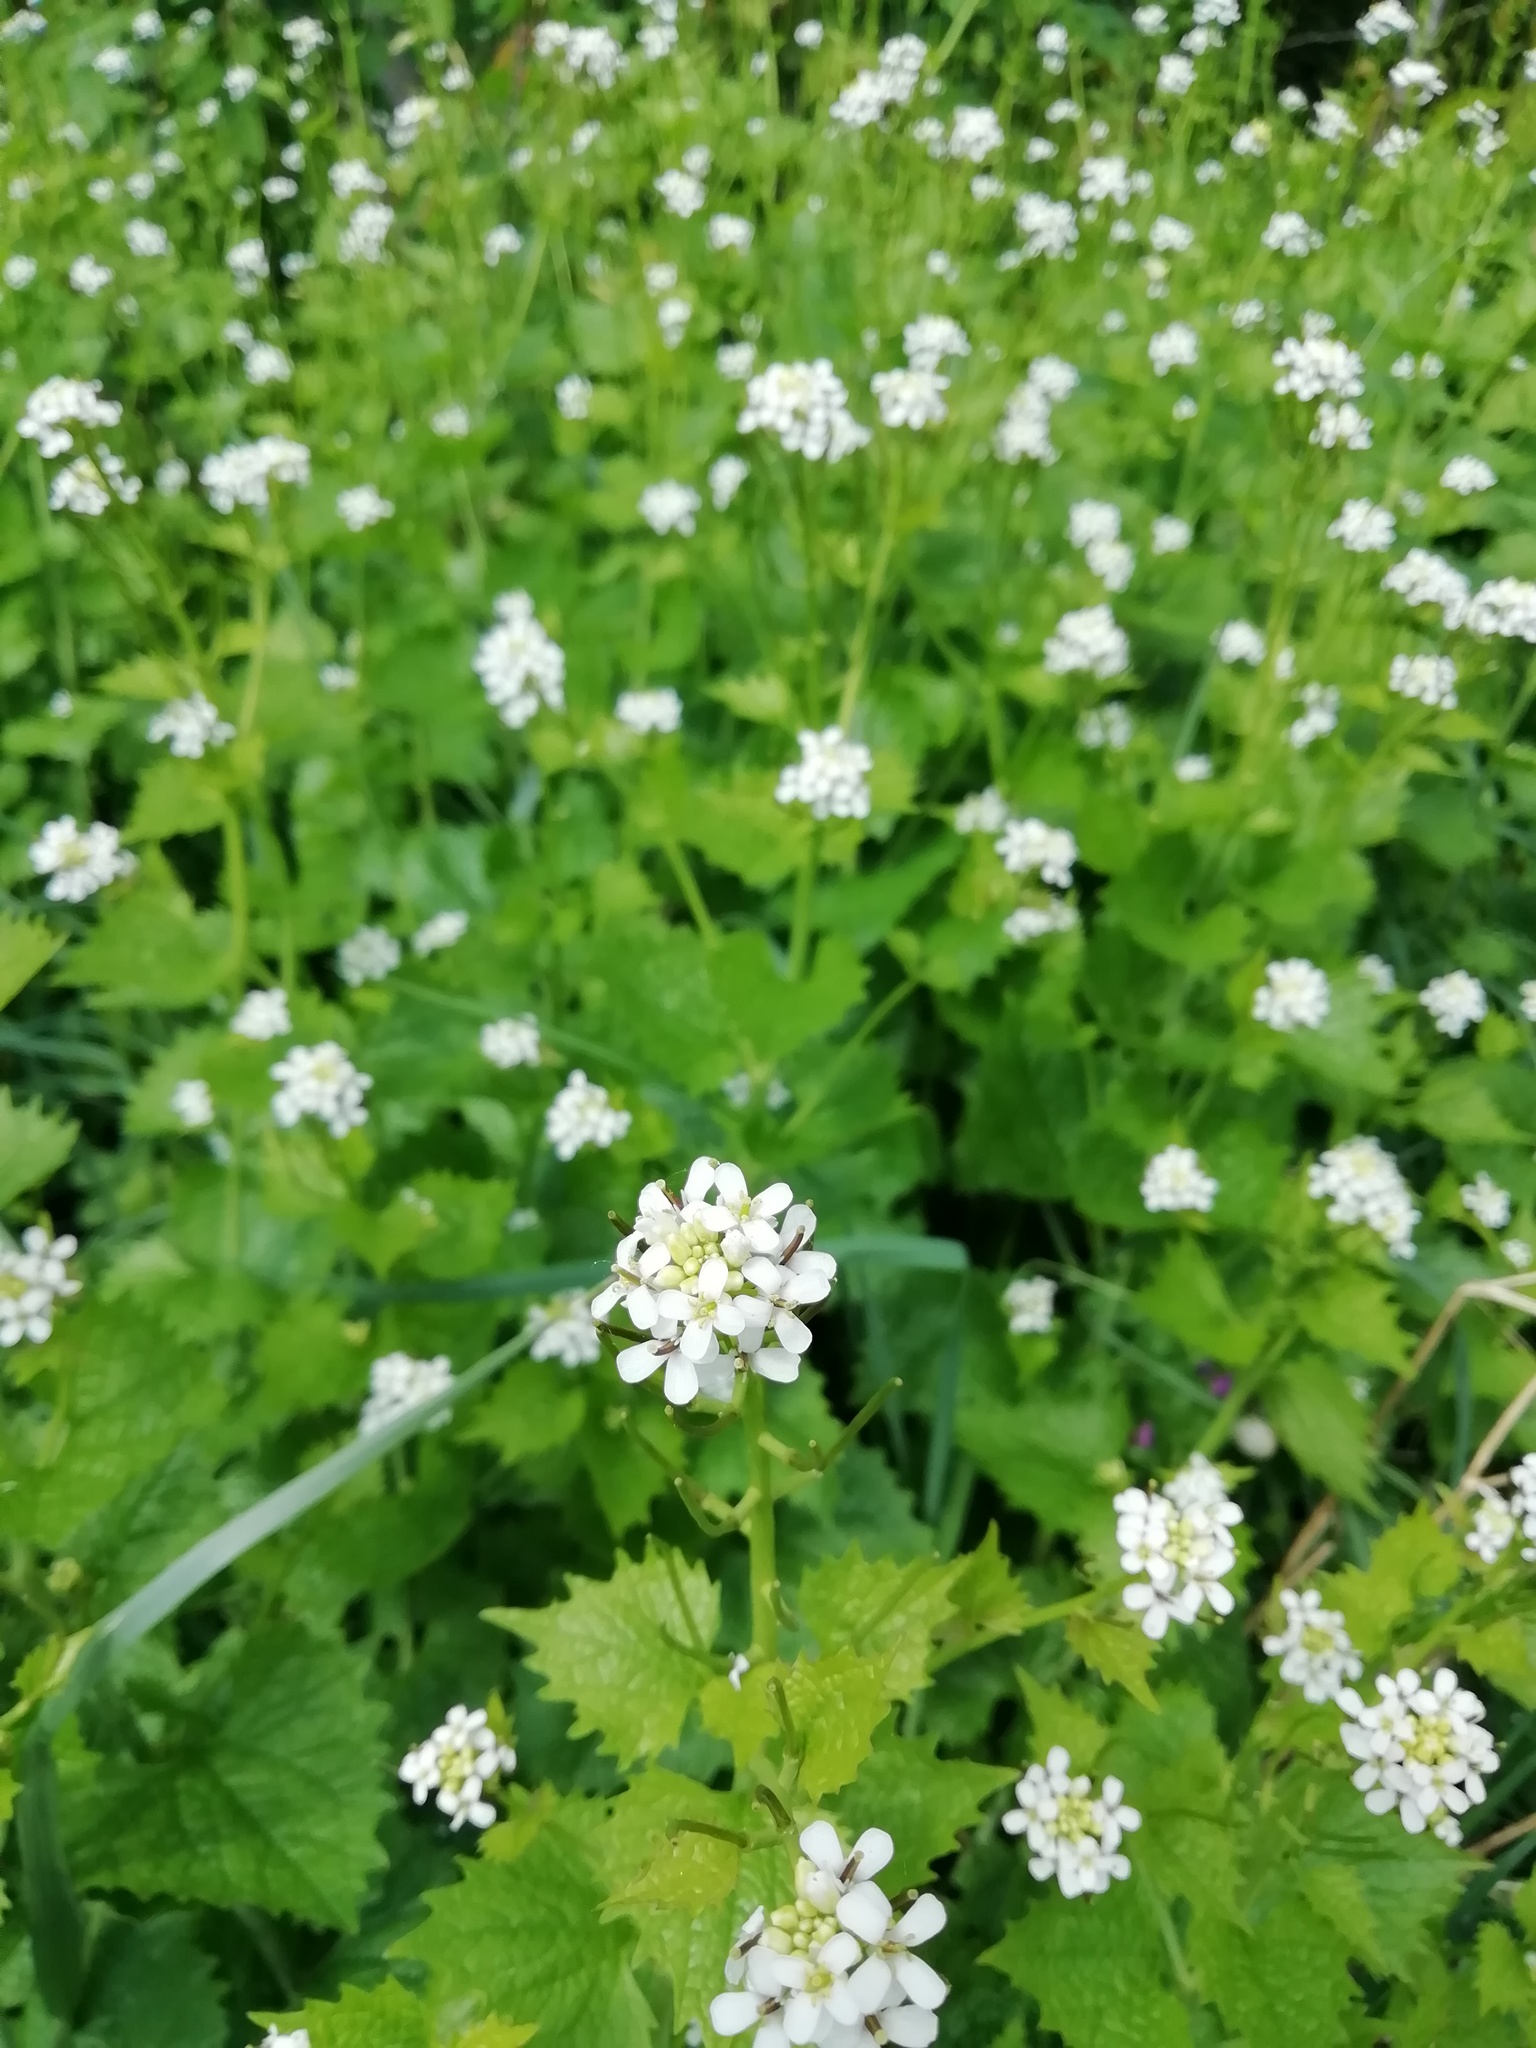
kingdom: Plantae
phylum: Tracheophyta
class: Magnoliopsida
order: Brassicales
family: Brassicaceae
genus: Alliaria
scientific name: Alliaria petiolata
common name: Garlic mustard
